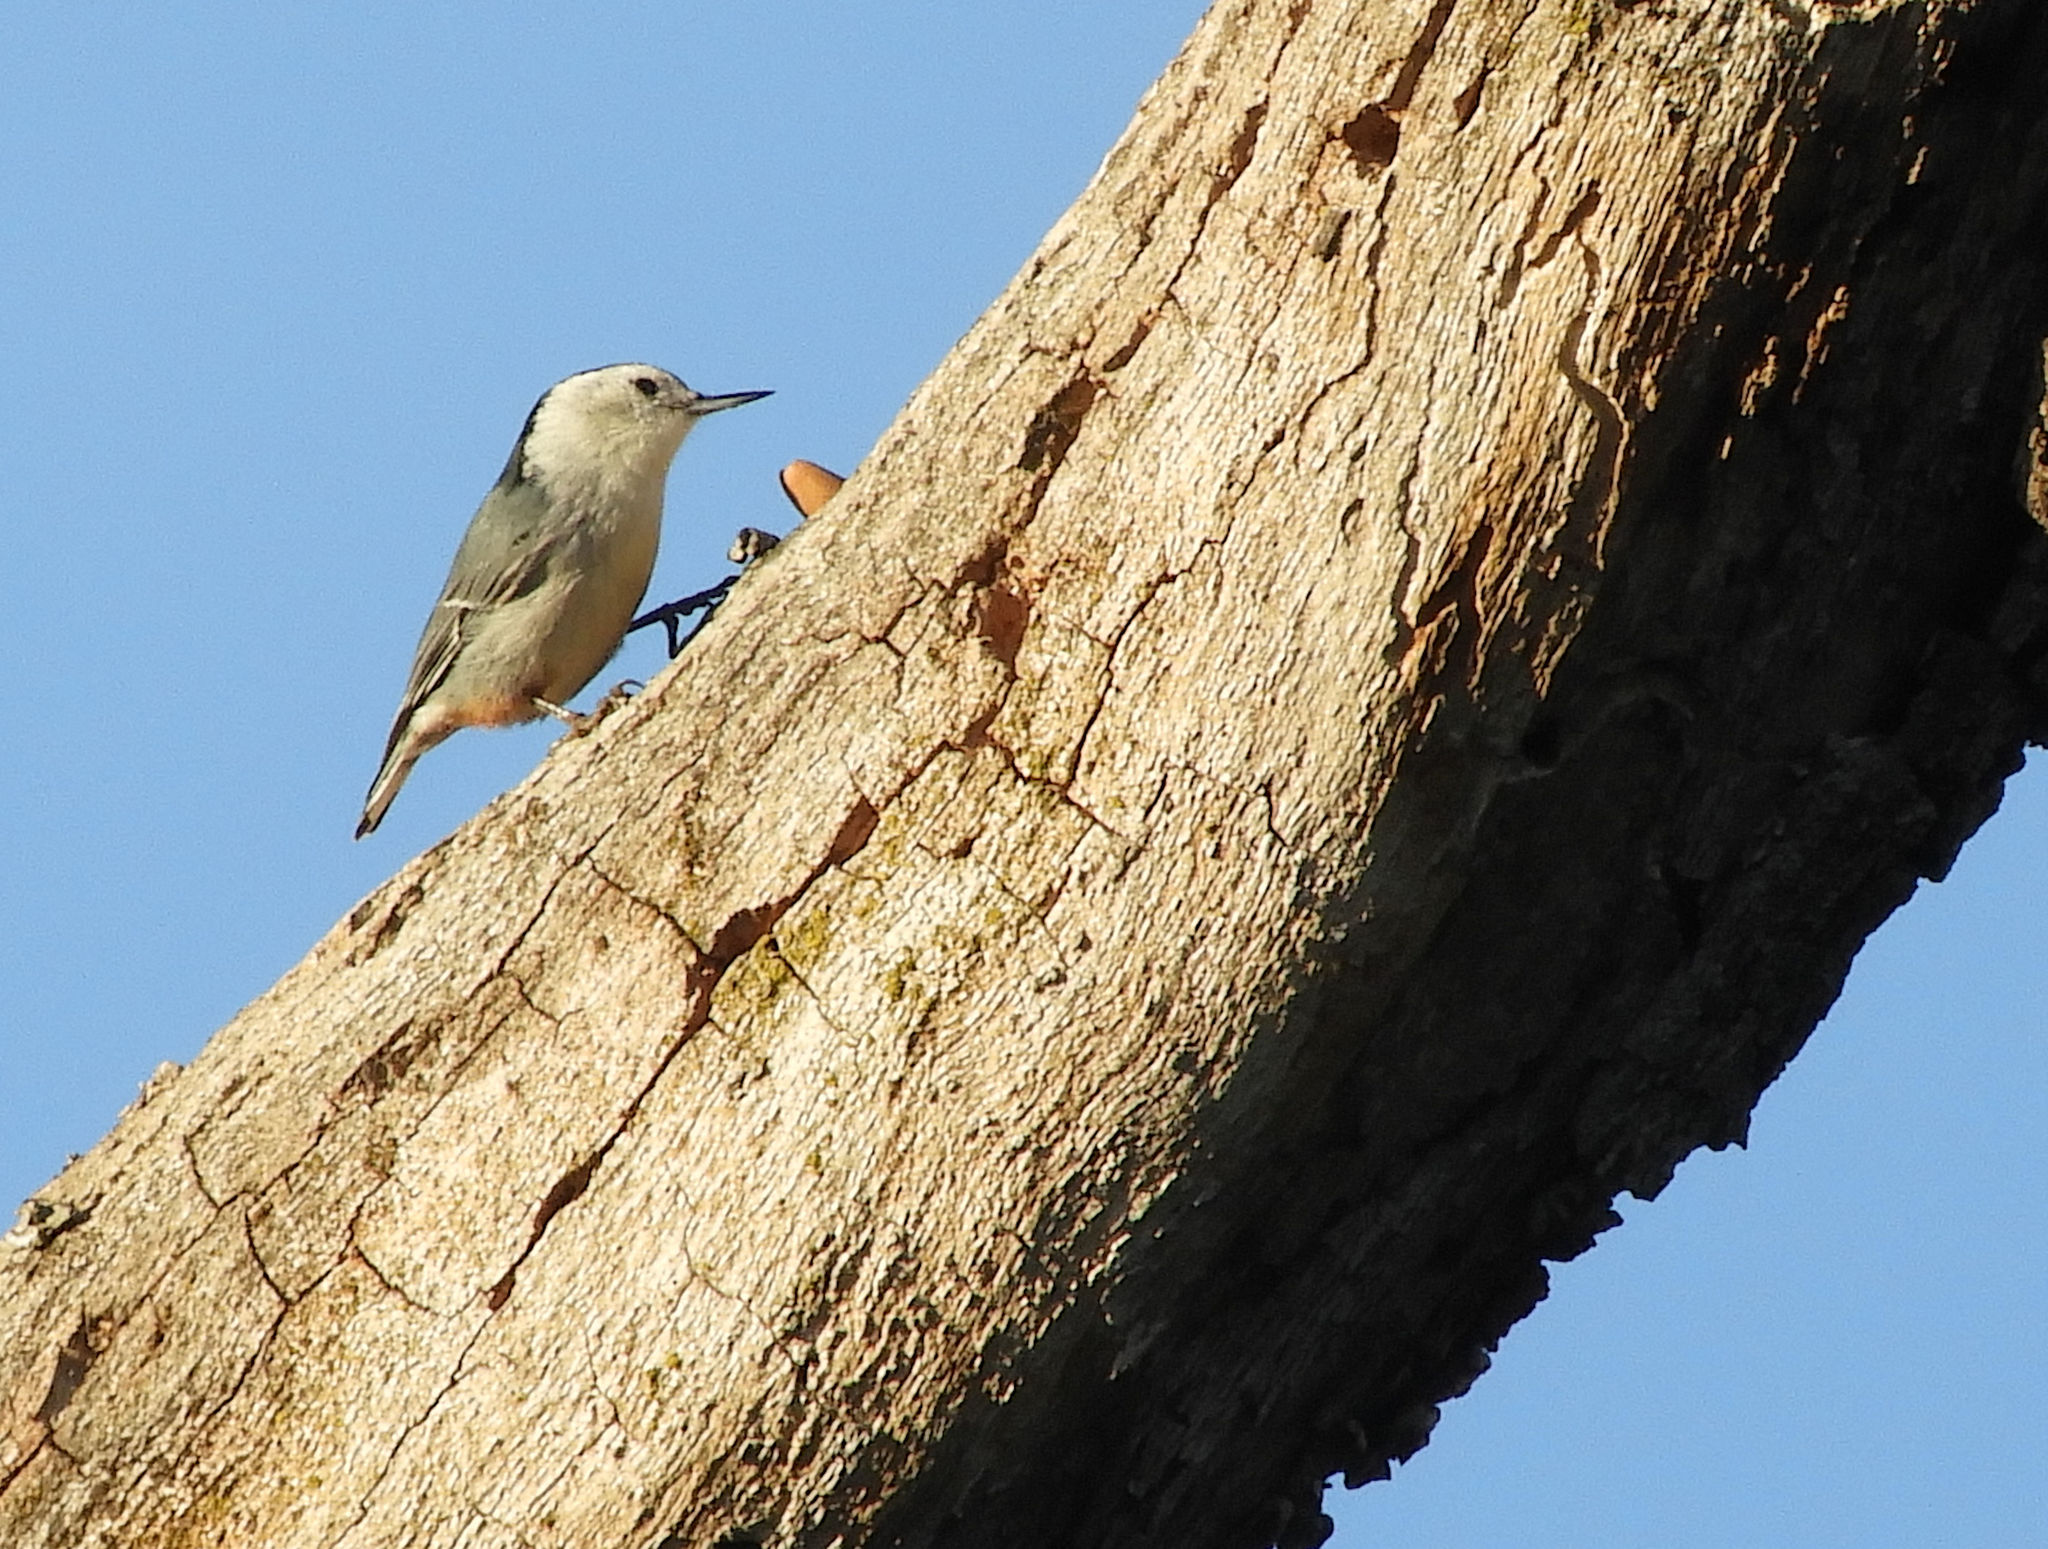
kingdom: Animalia
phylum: Chordata
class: Aves
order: Passeriformes
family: Sittidae
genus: Sitta
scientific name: Sitta carolinensis
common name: White-breasted nuthatch
